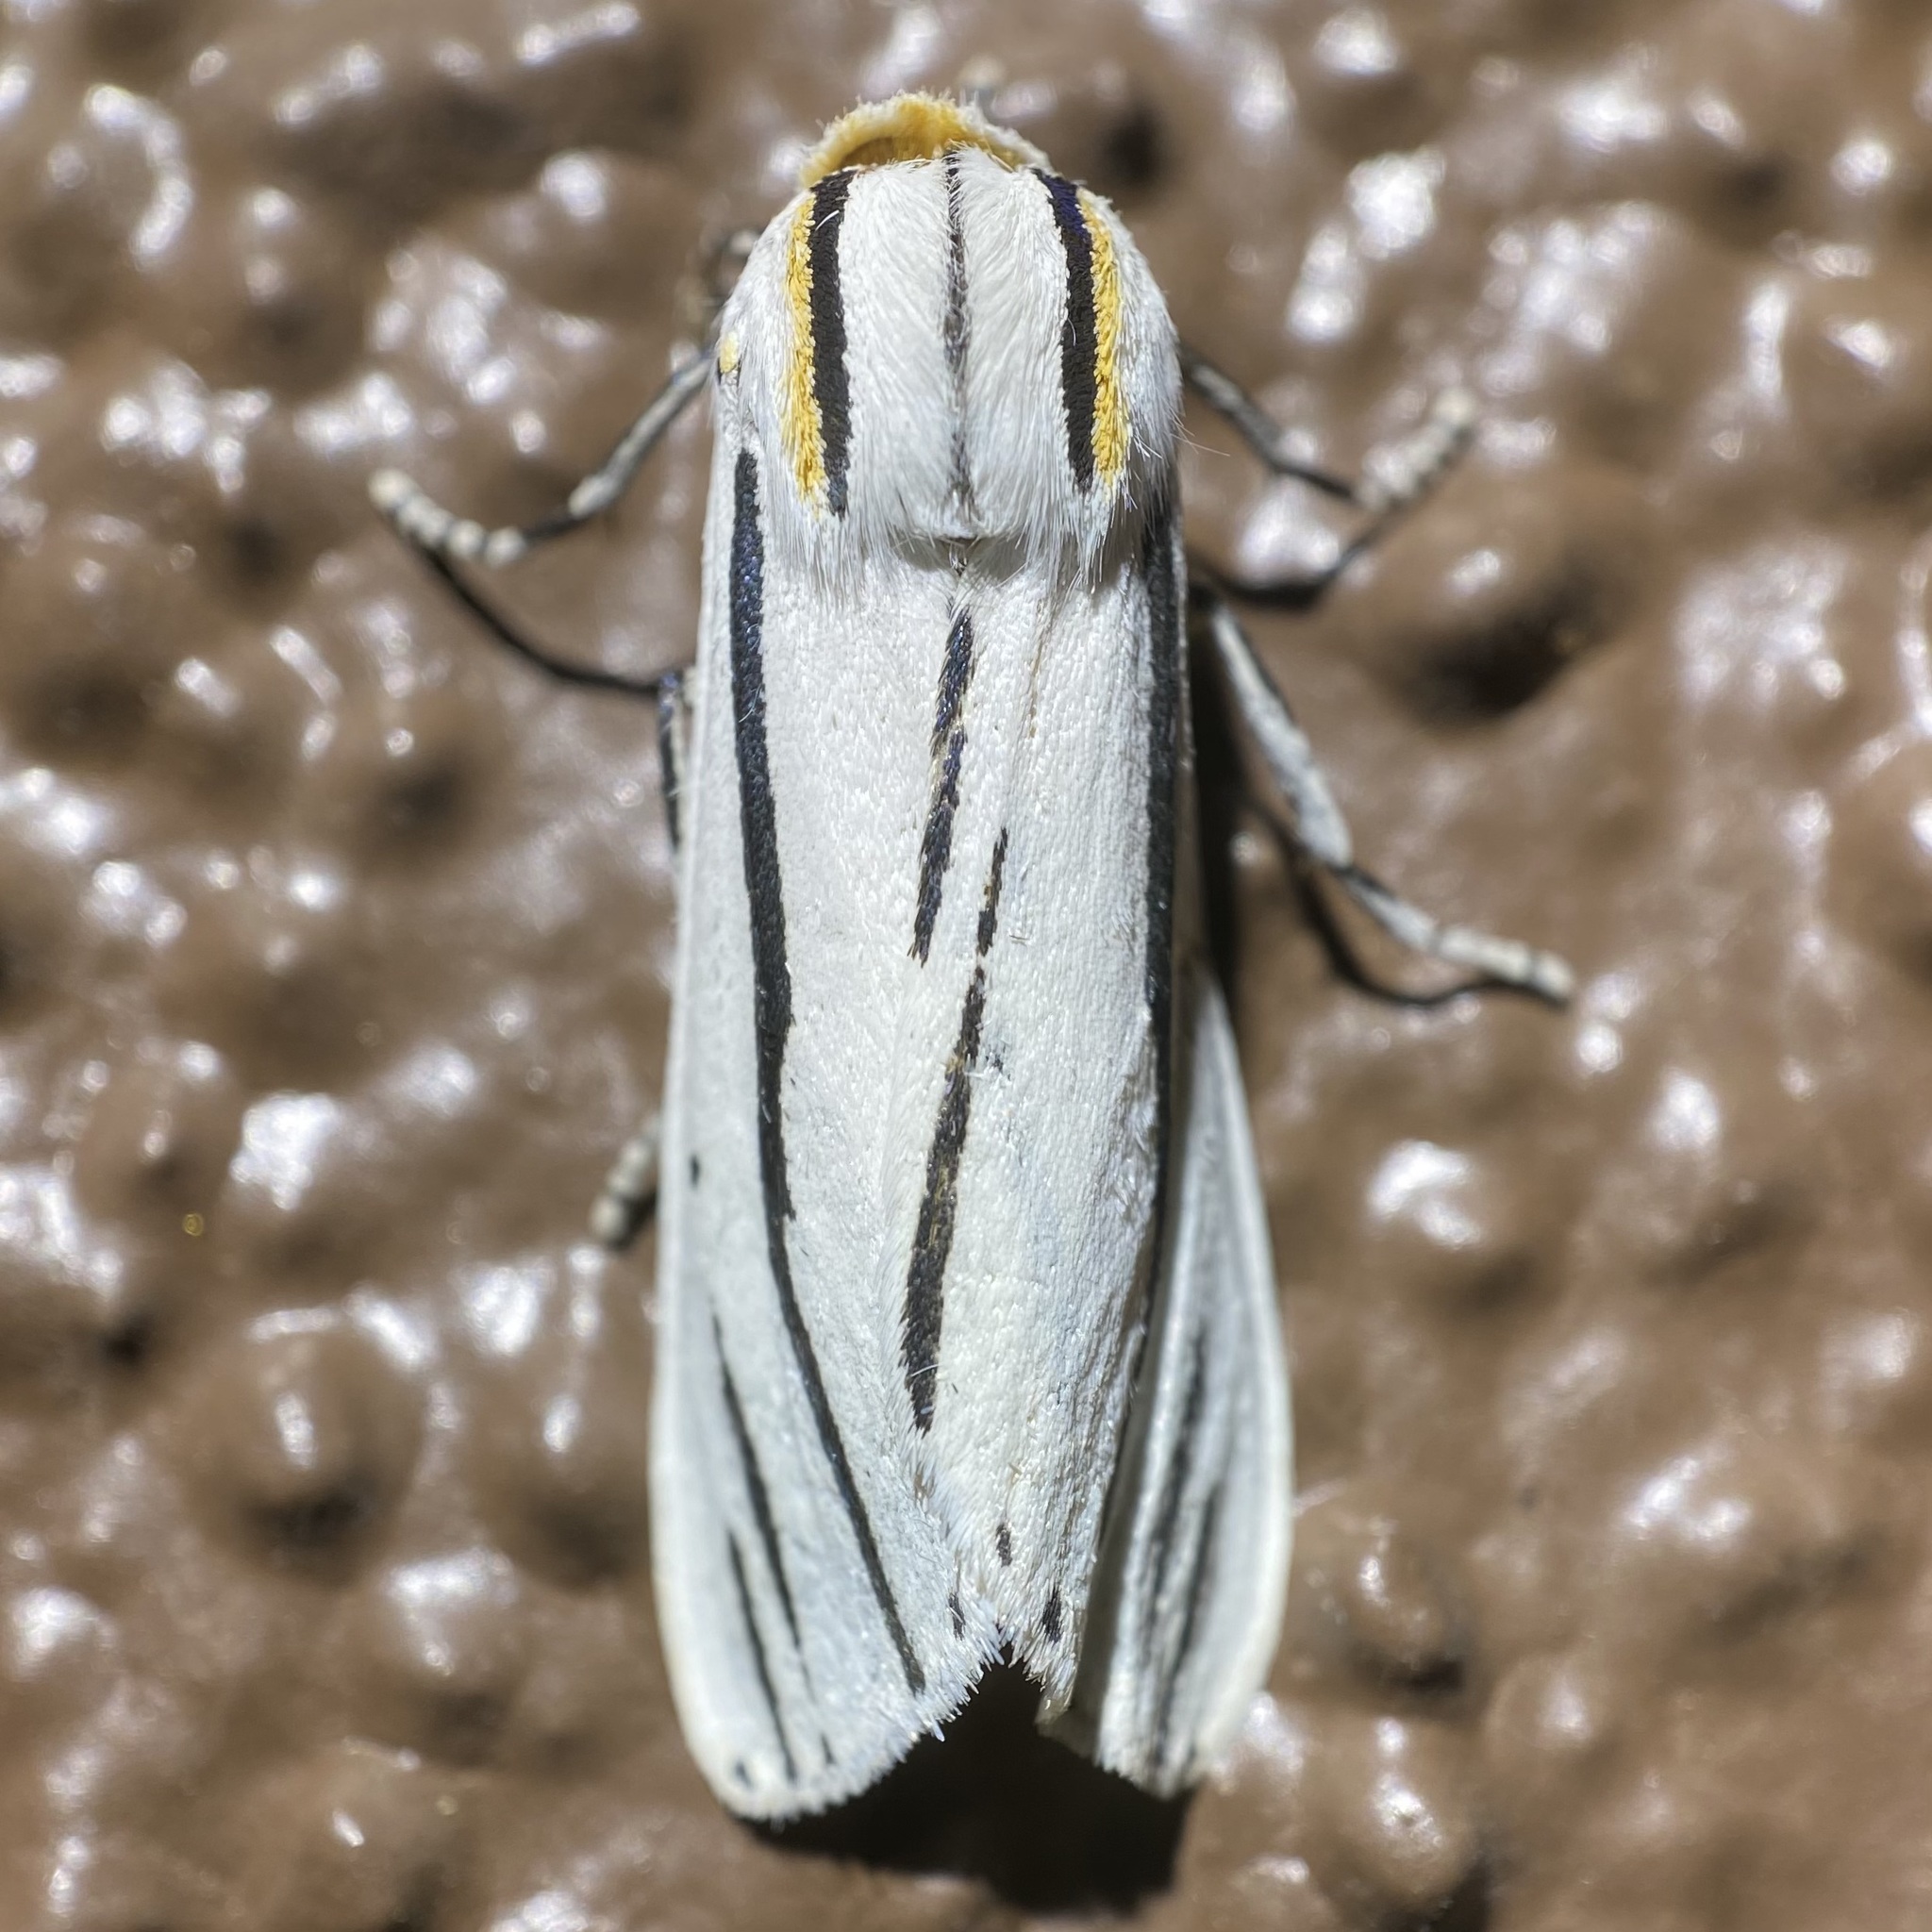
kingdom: Animalia
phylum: Arthropoda
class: Insecta
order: Lepidoptera
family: Erebidae
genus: Ectypia
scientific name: Ectypia clio
